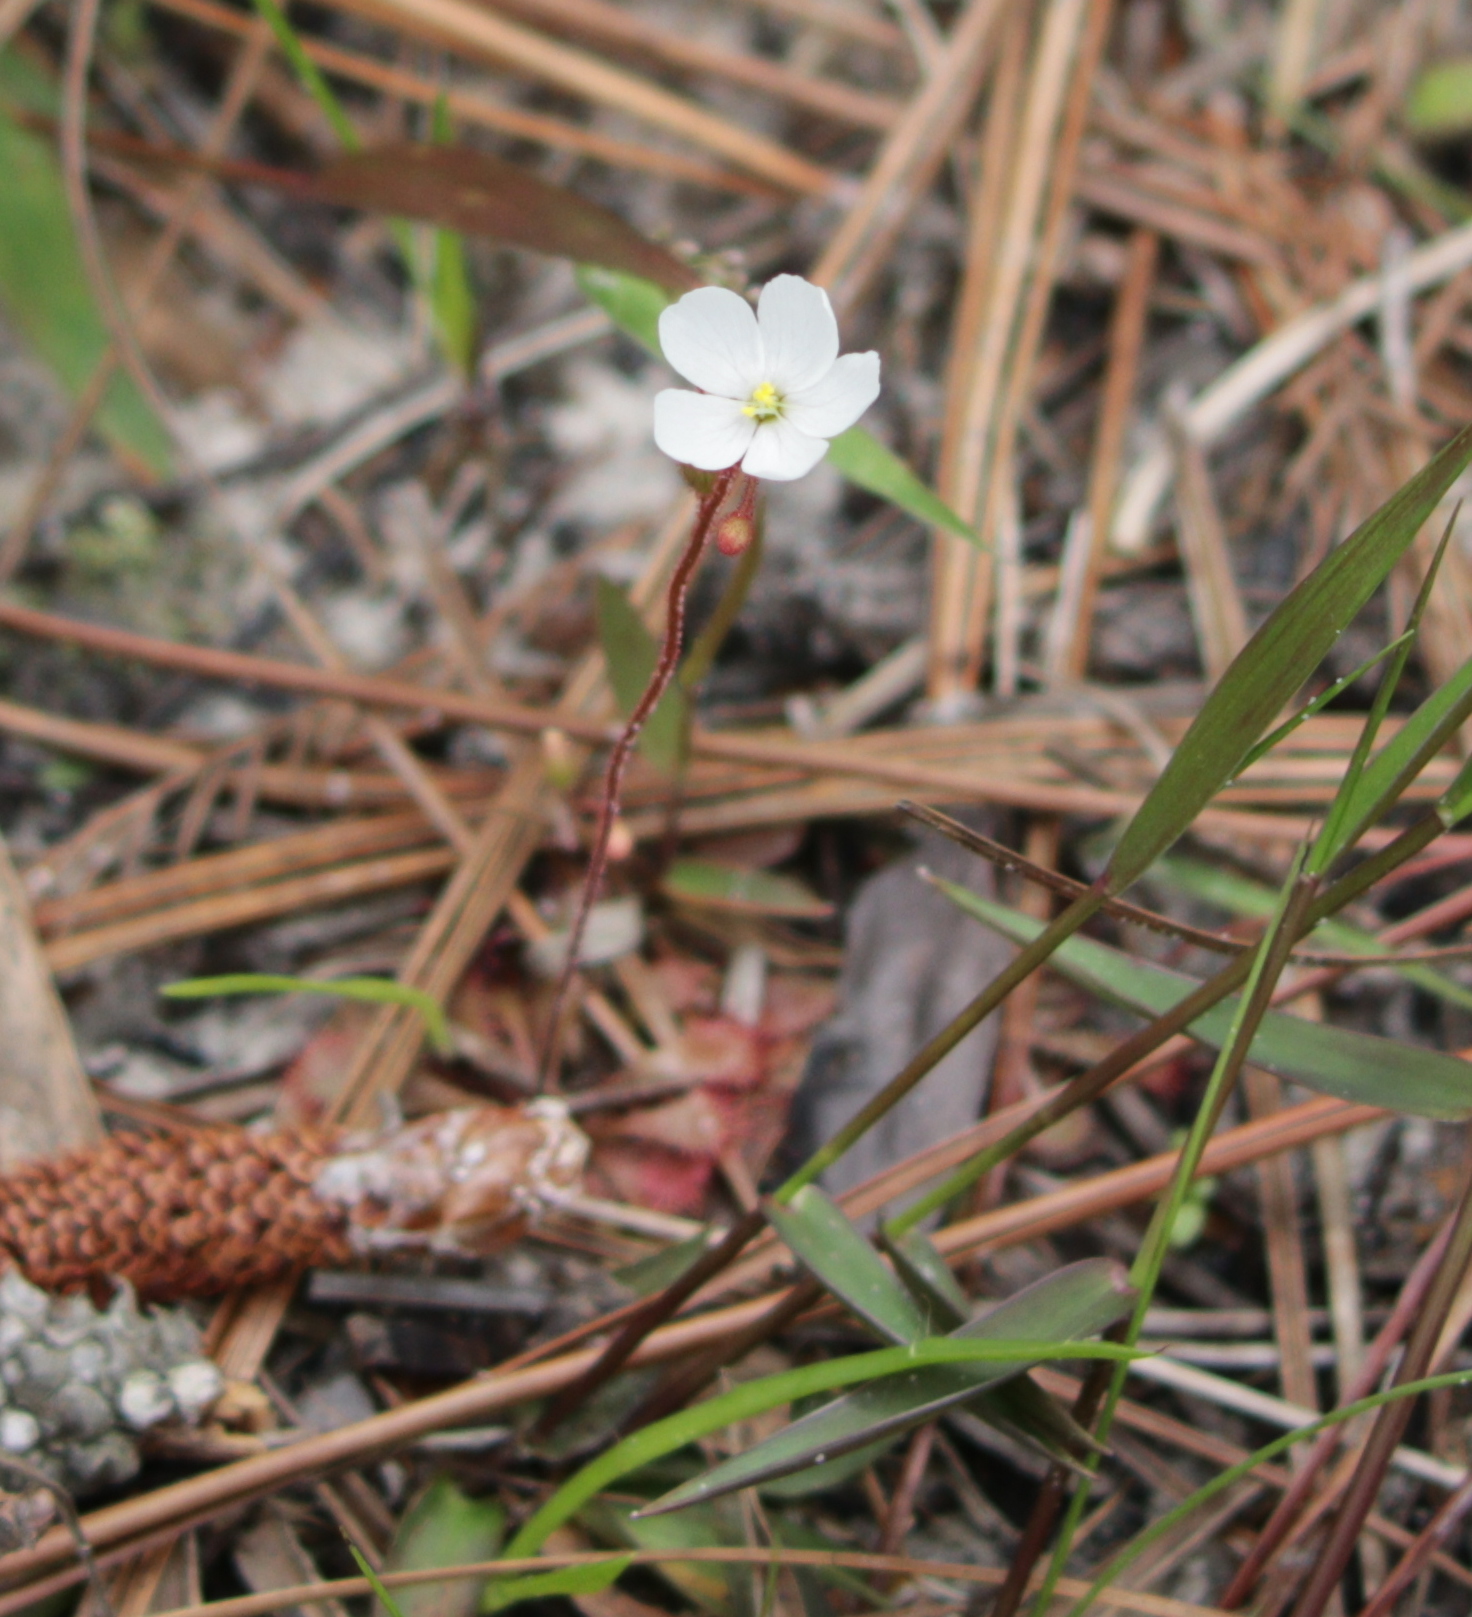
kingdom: Plantae
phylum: Tracheophyta
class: Magnoliopsida
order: Caryophyllales
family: Droseraceae
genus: Drosera
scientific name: Drosera brevifolia
